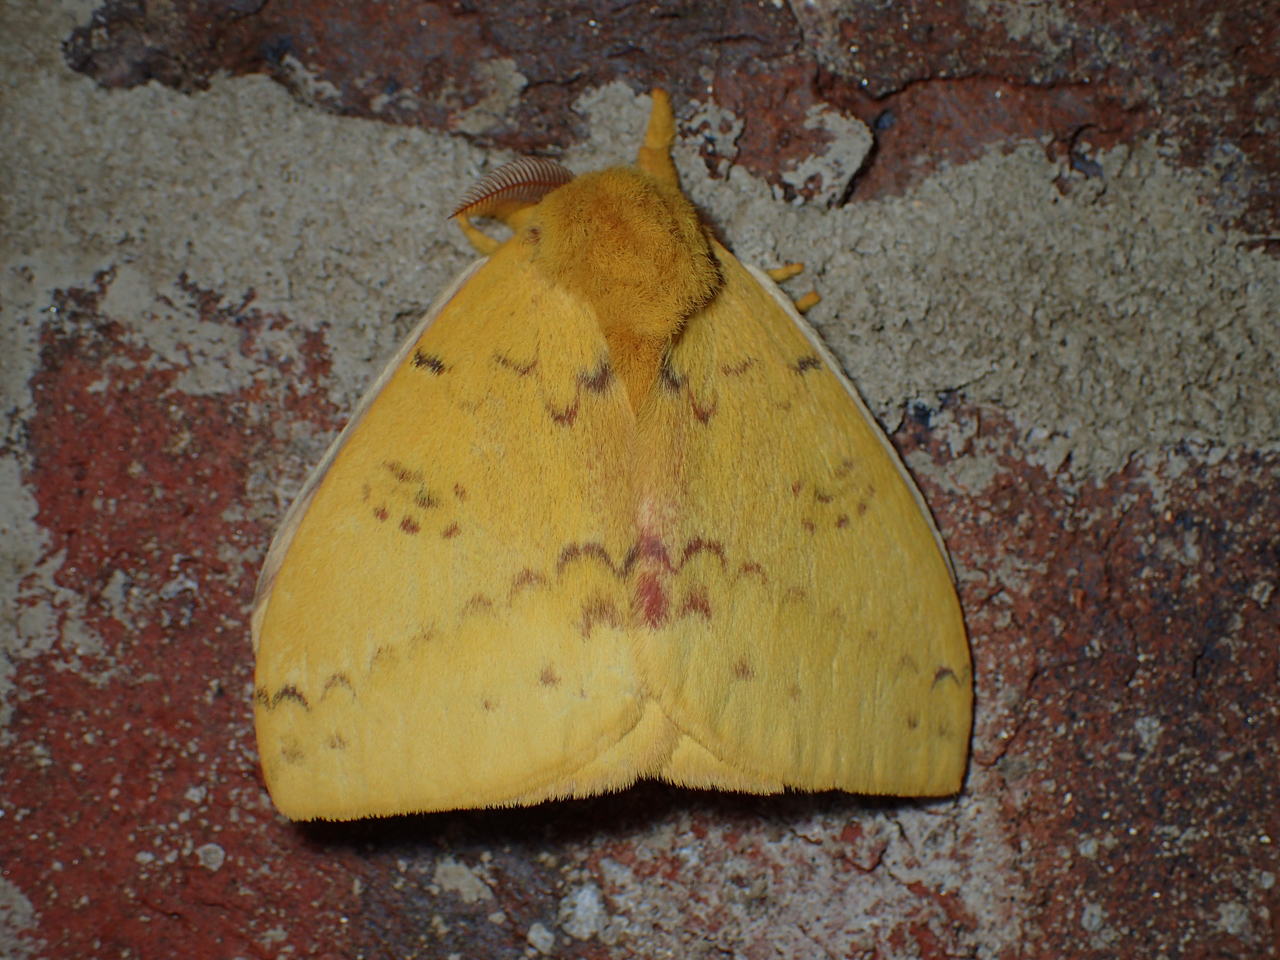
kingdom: Animalia
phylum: Arthropoda
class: Insecta
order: Lepidoptera
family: Saturniidae
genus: Automeris
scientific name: Automeris io
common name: Io moth
